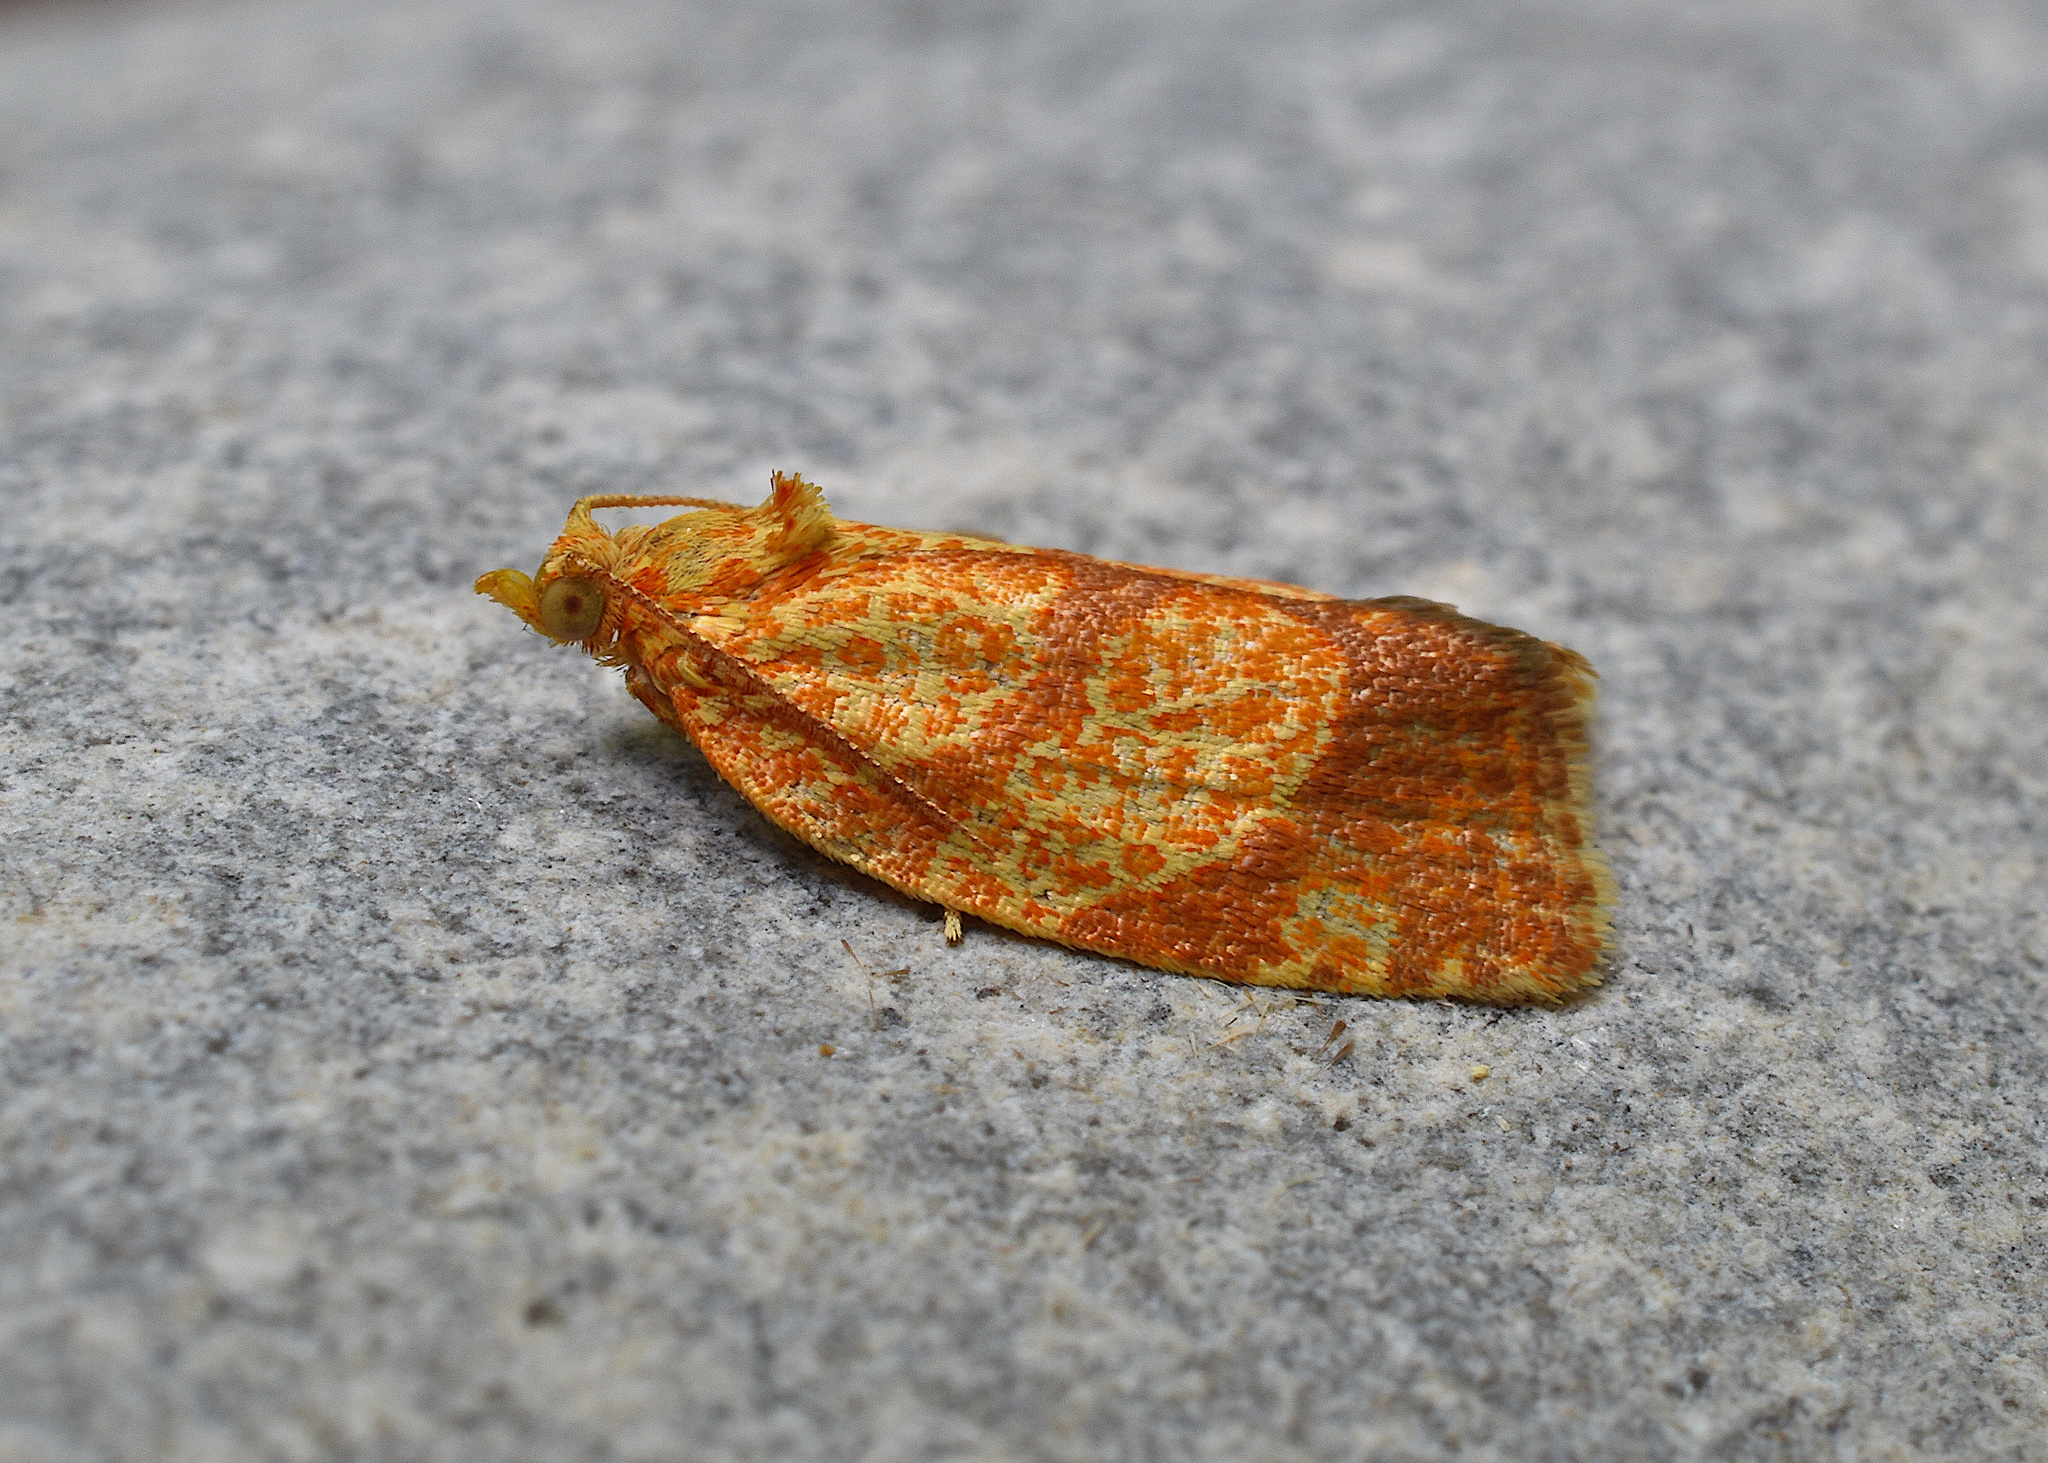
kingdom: Animalia
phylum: Arthropoda
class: Insecta
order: Lepidoptera
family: Tortricidae
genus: Argyrotaenia
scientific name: Argyrotaenia quadrifasciana
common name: Four-lined leafroller moth
